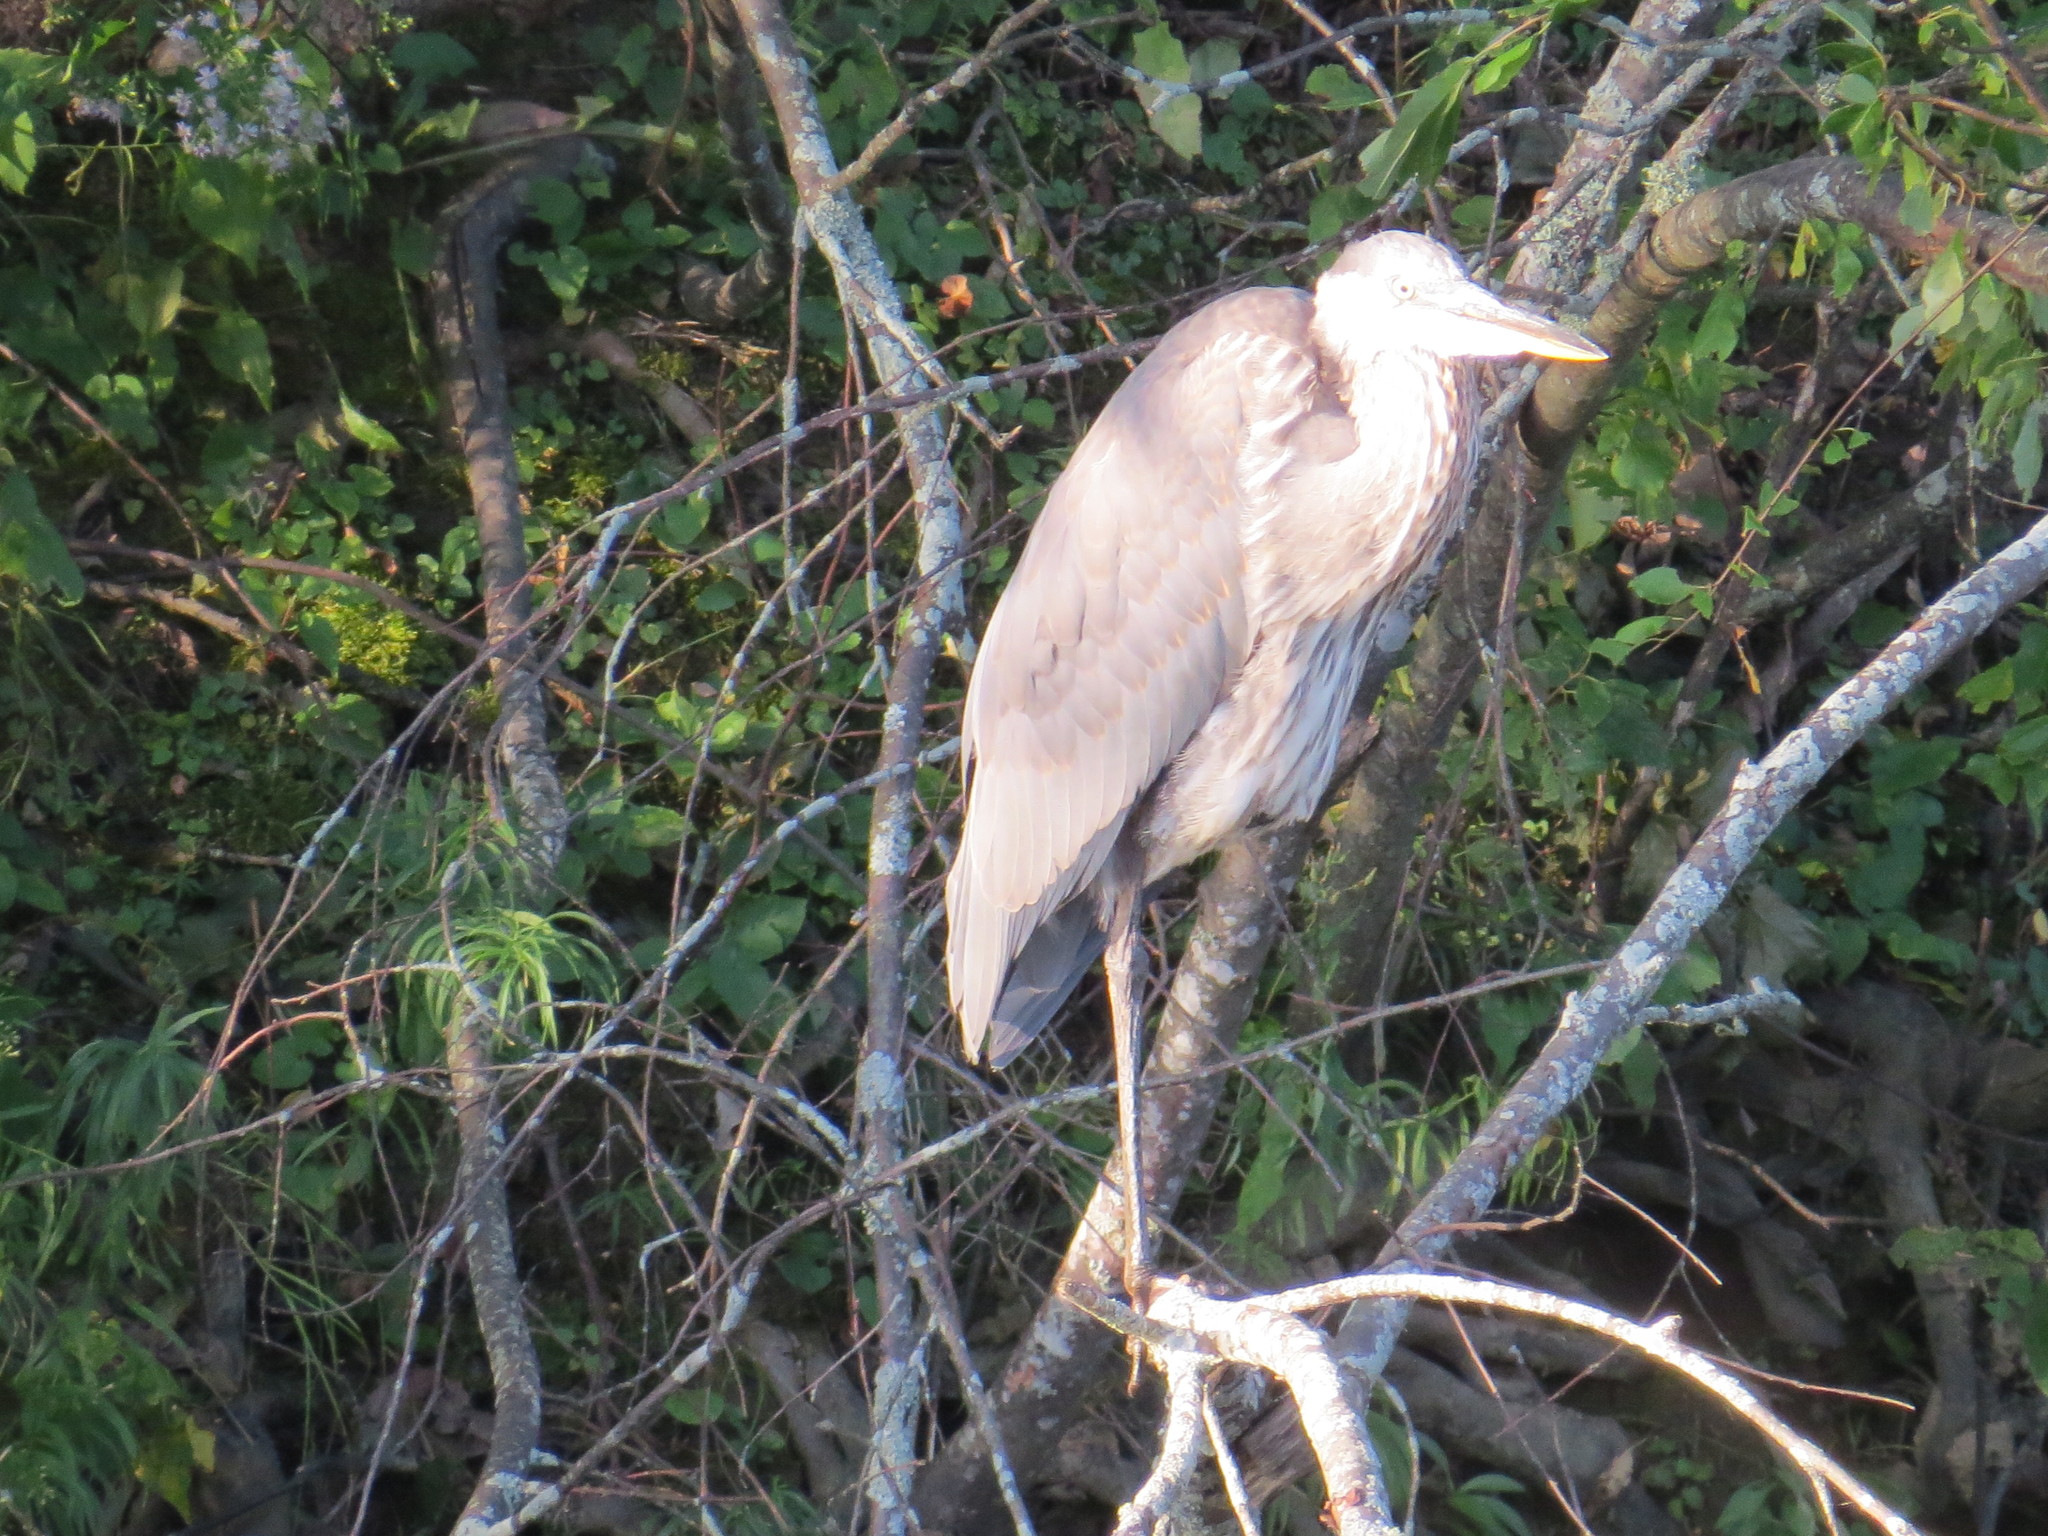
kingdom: Animalia
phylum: Chordata
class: Aves
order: Pelecaniformes
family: Ardeidae
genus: Ardea
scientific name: Ardea herodias
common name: Great blue heron
